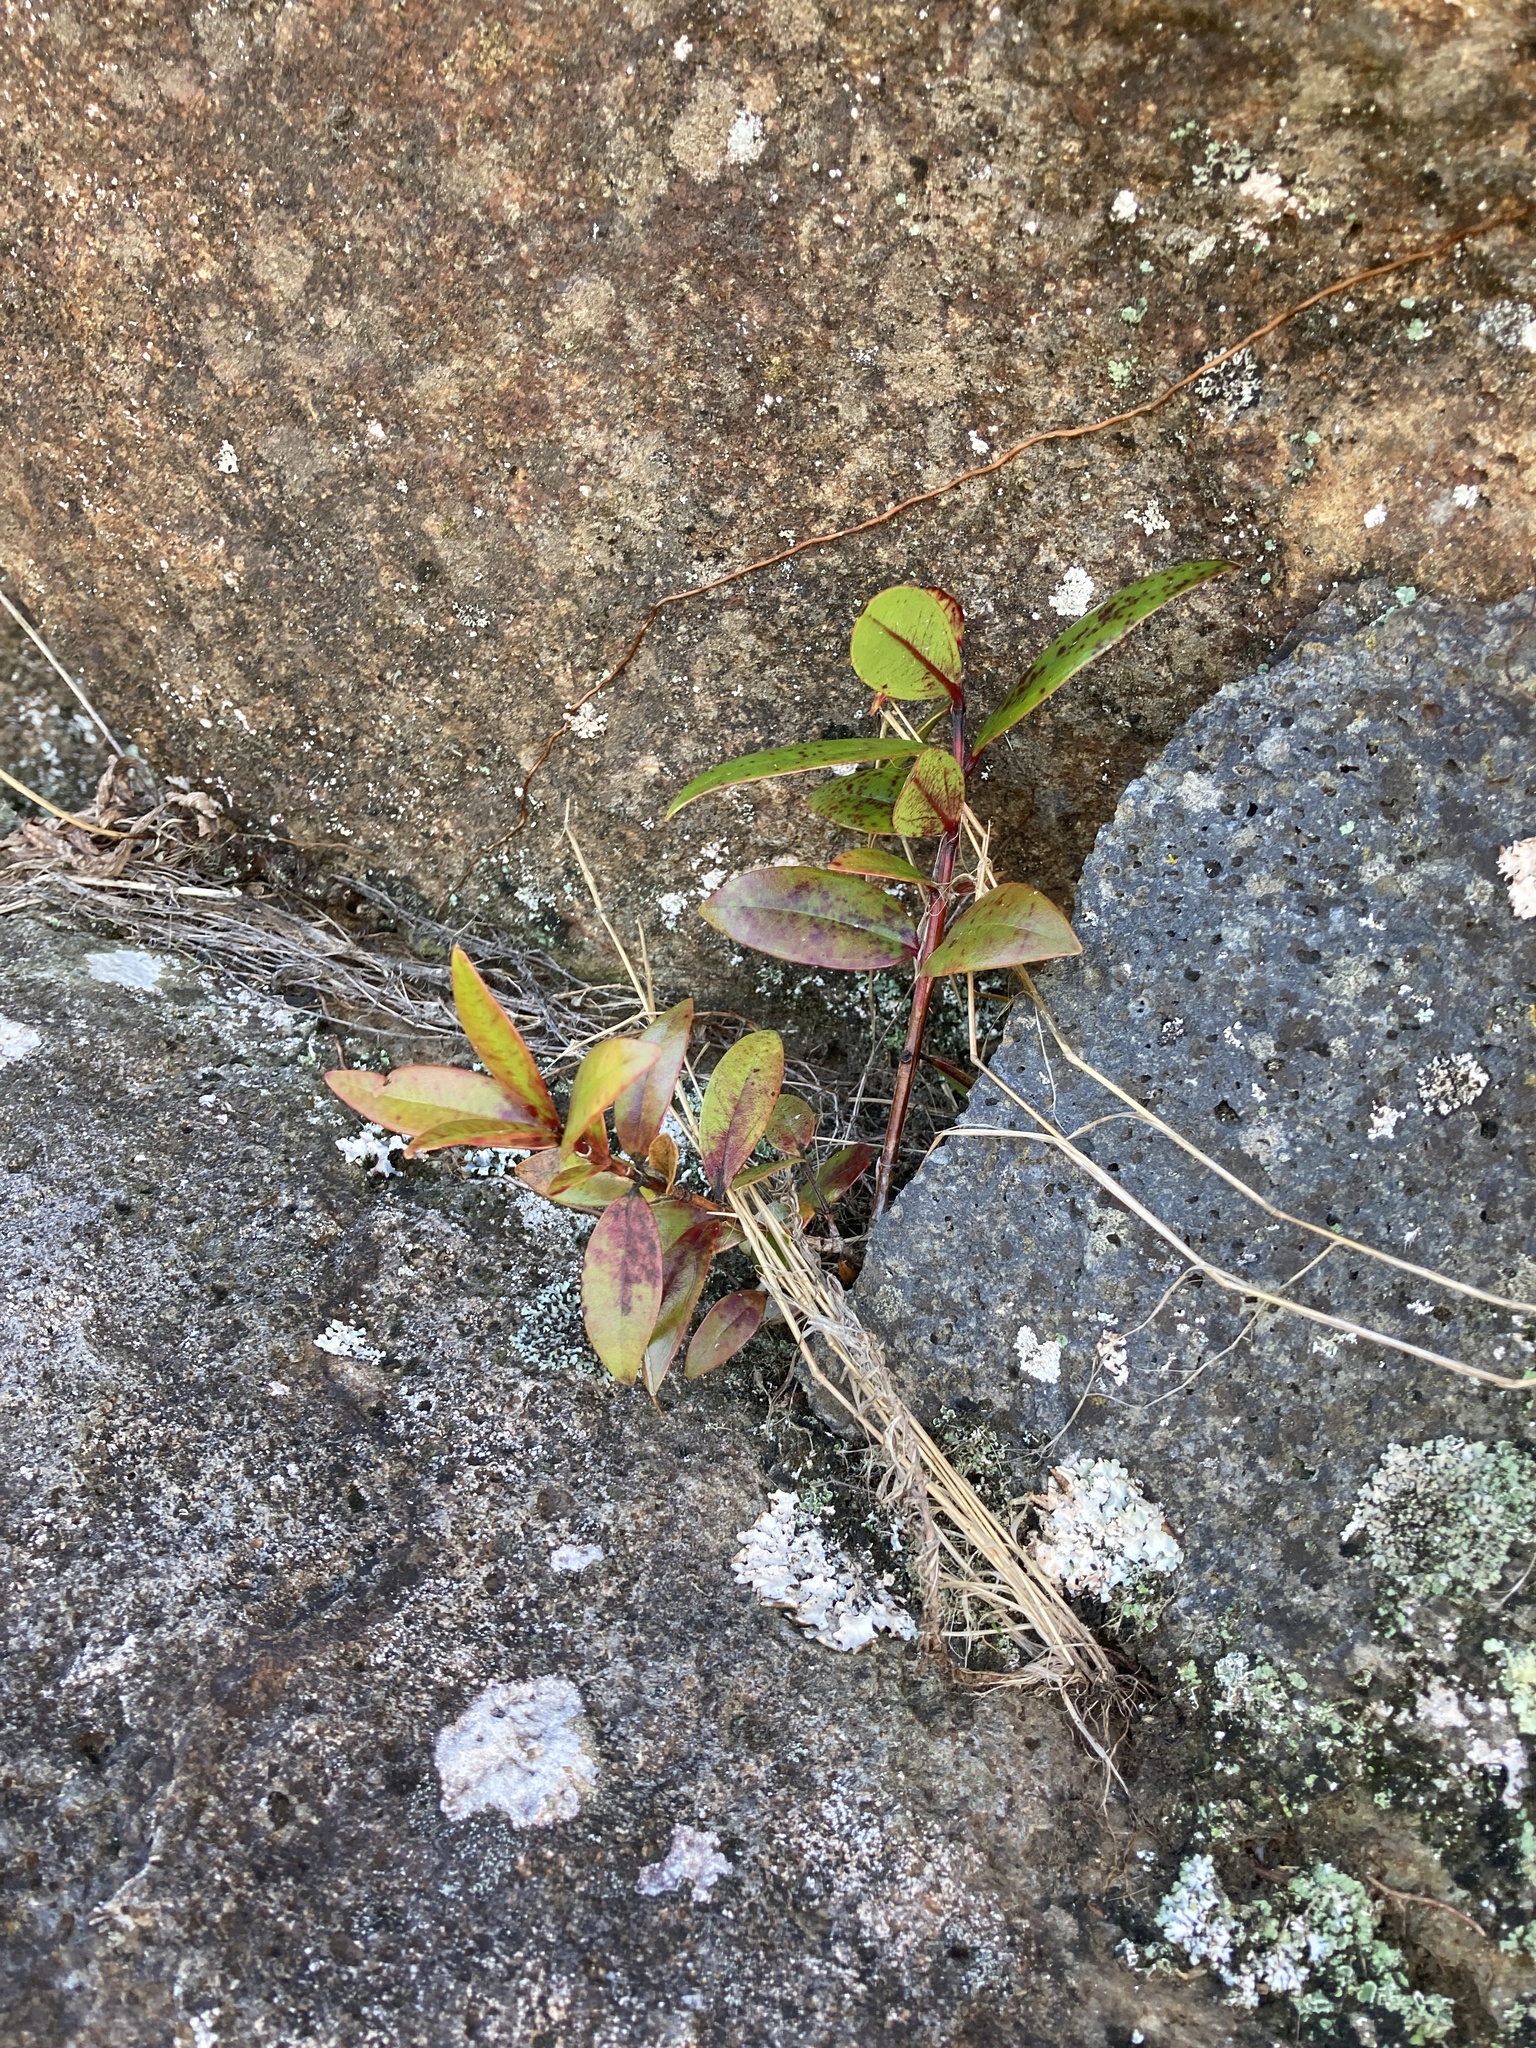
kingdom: Plantae
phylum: Tracheophyta
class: Magnoliopsida
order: Myrtales
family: Myrtaceae
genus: Metrosideros
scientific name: Metrosideros excelsa
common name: New zealand christmastree
